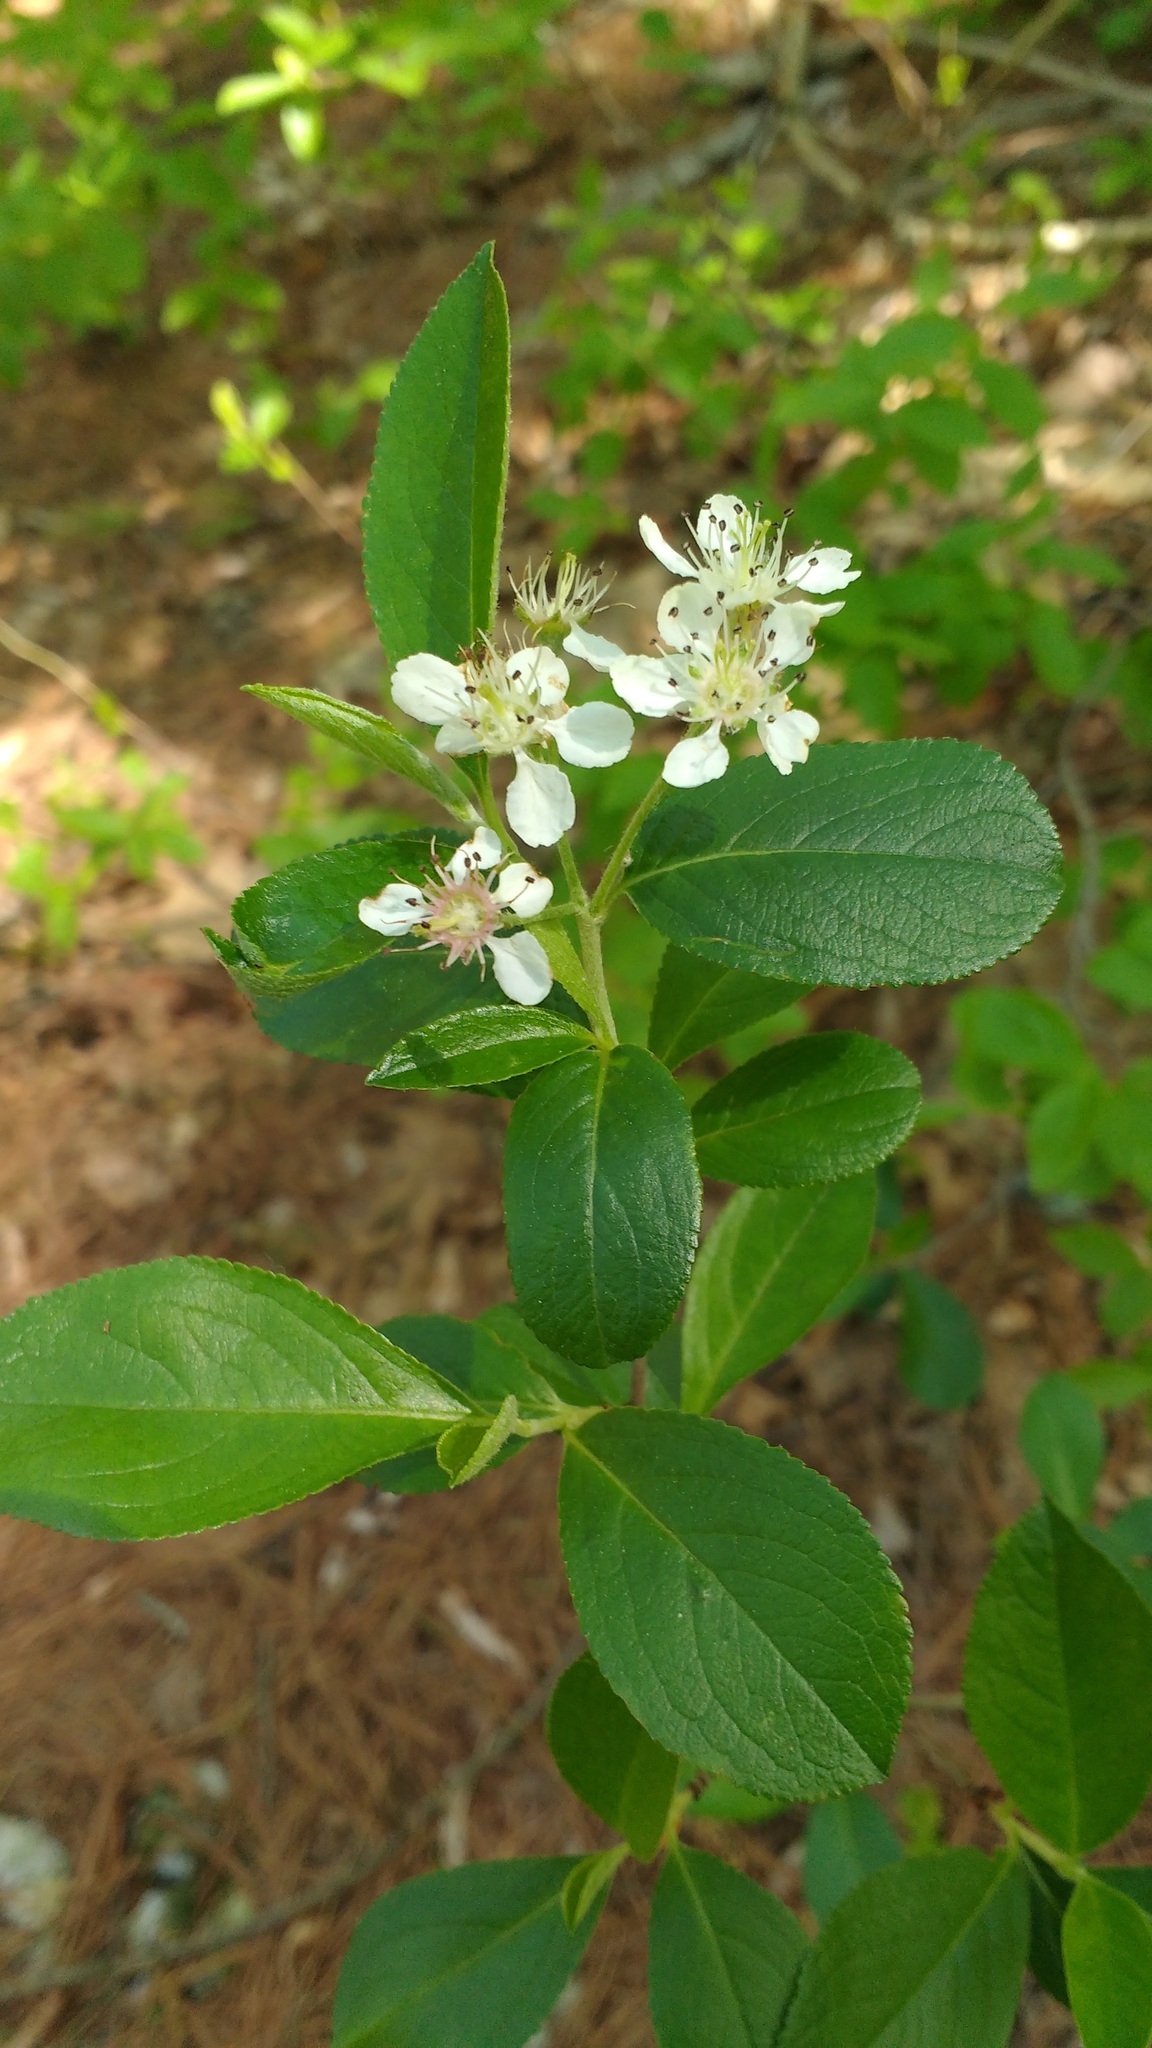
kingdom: Plantae
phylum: Tracheophyta
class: Magnoliopsida
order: Rosales
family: Rosaceae
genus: Aronia
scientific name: Aronia melanocarpa
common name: Black chokeberry
